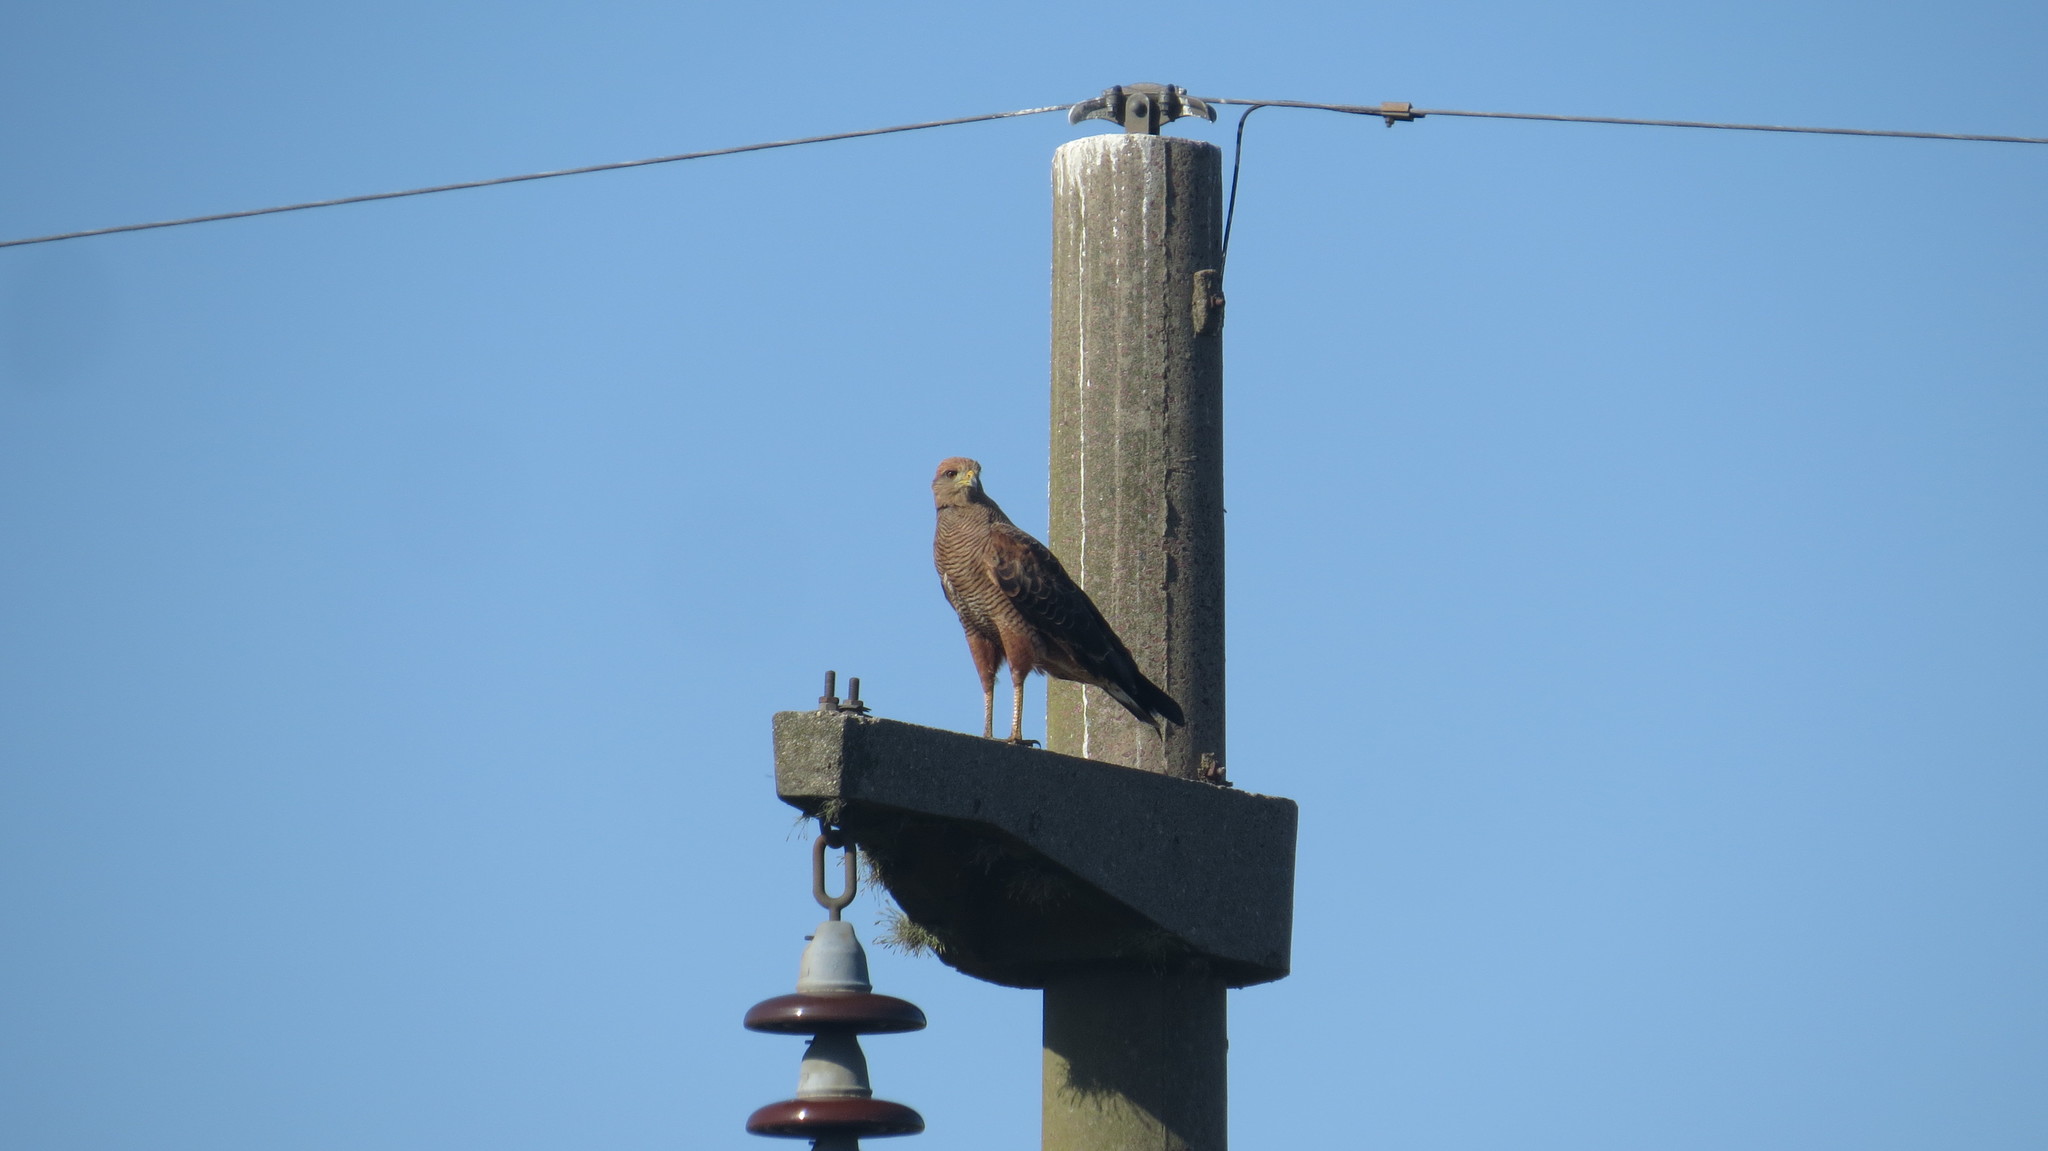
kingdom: Animalia
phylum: Chordata
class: Aves
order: Accipitriformes
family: Accipitridae
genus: Buteogallus
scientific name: Buteogallus meridionalis
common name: Savanna hawk
